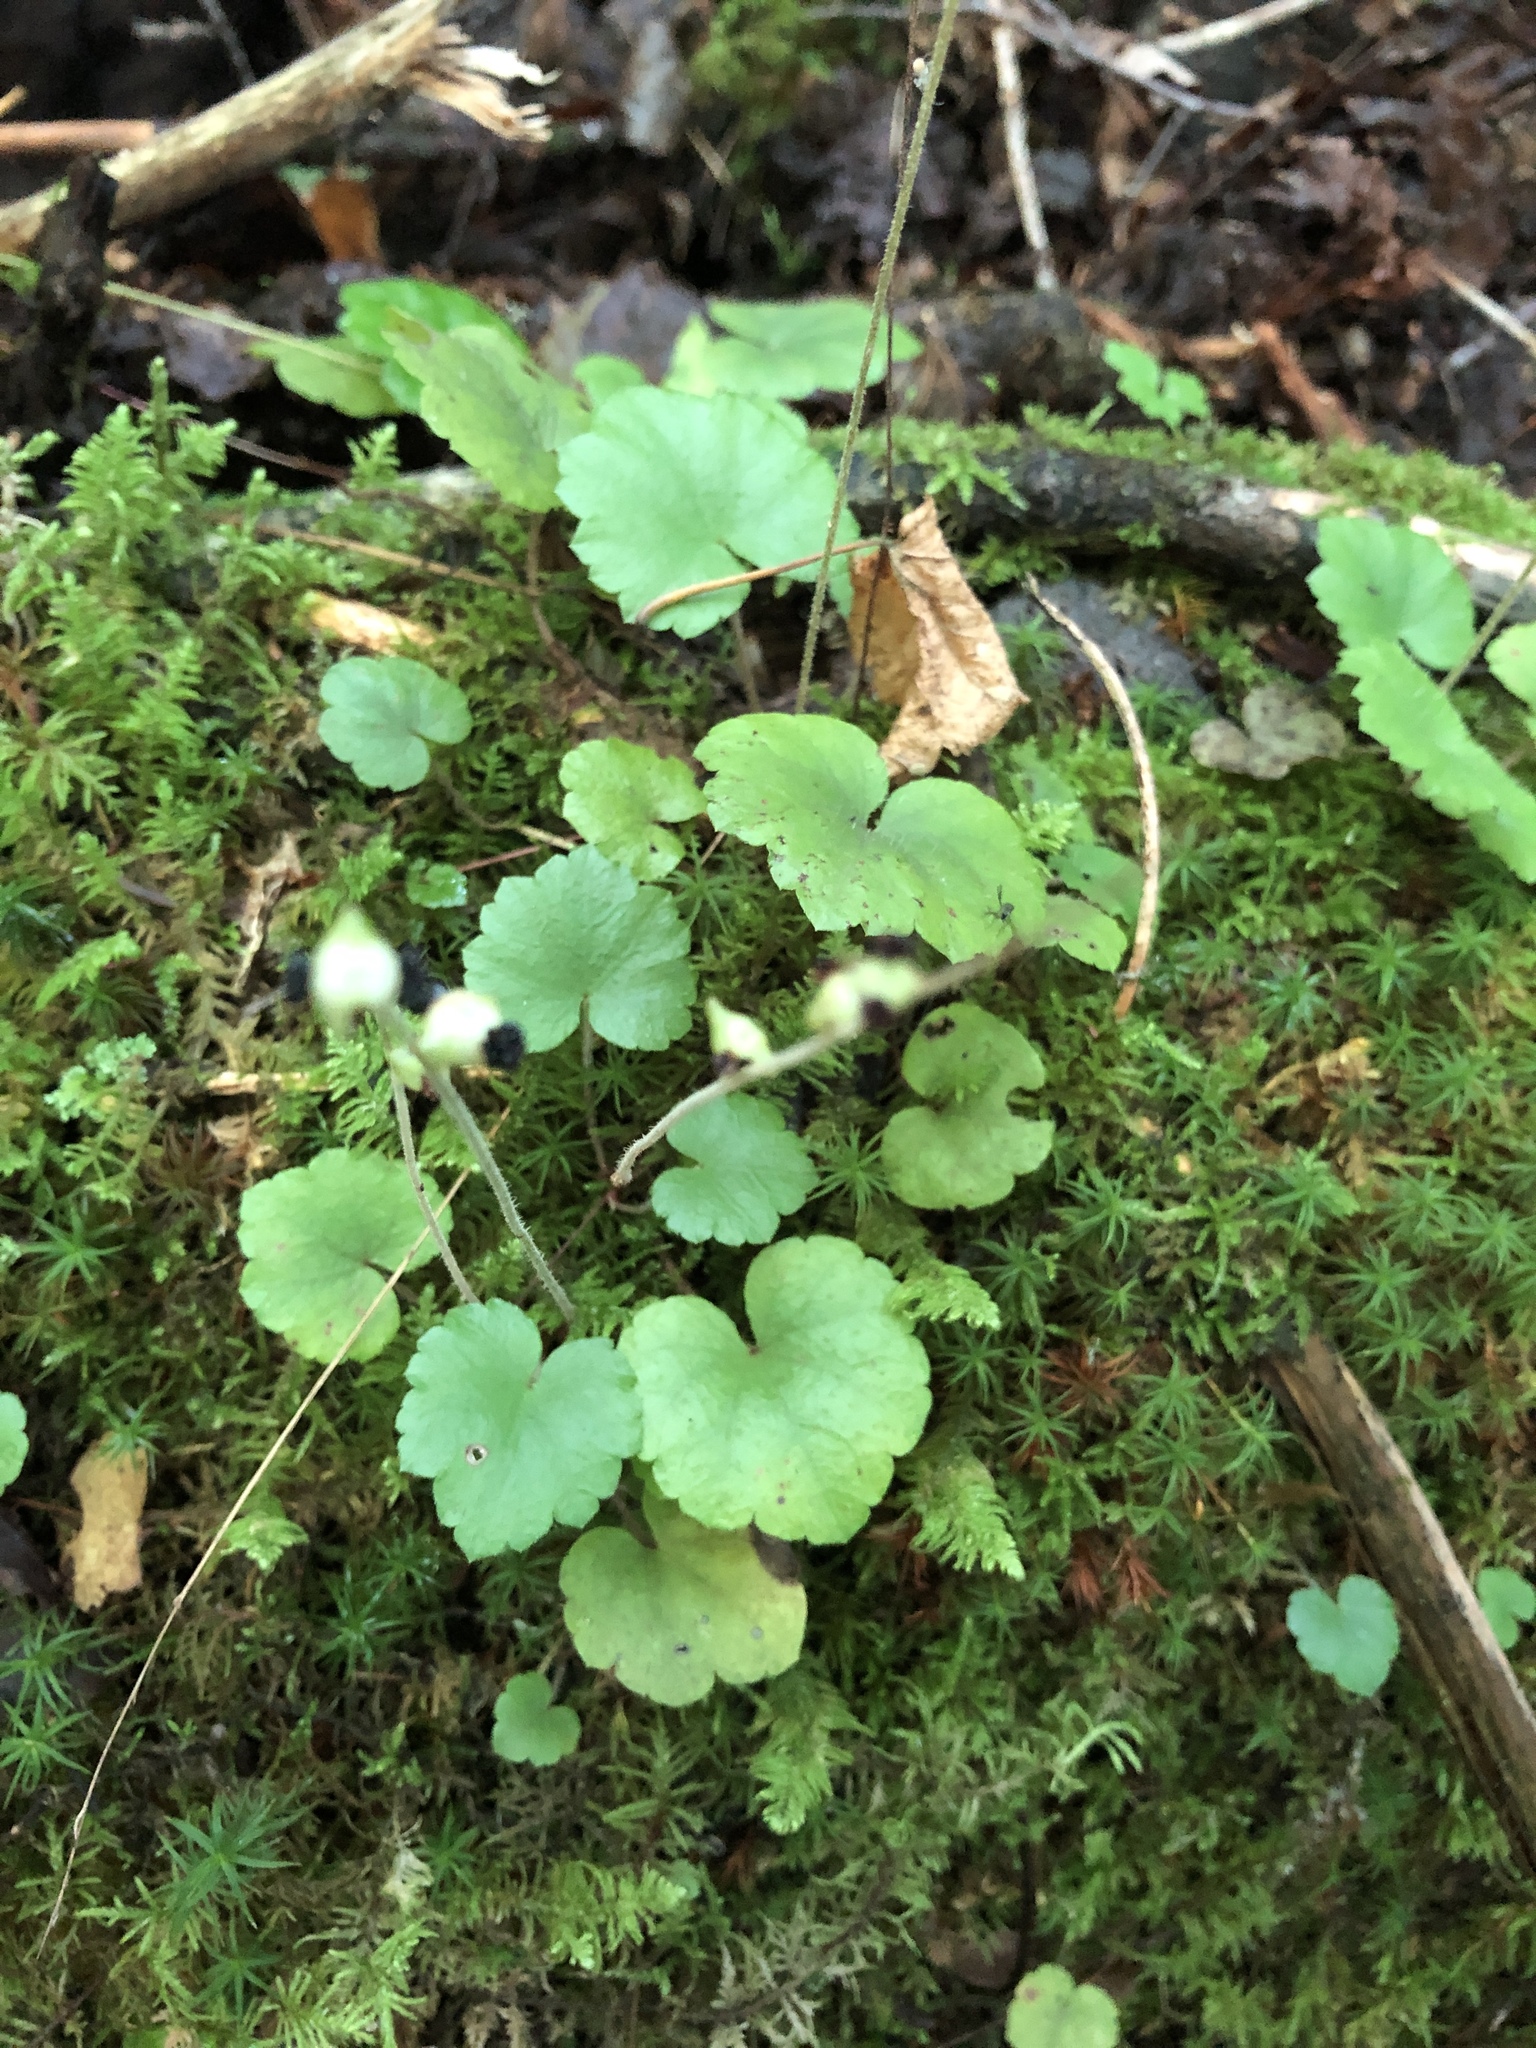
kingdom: Plantae
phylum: Tracheophyta
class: Magnoliopsida
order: Saxifragales
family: Saxifragaceae
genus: Mitella
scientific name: Mitella nuda
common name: Bare-stemmed bishop's-cap
